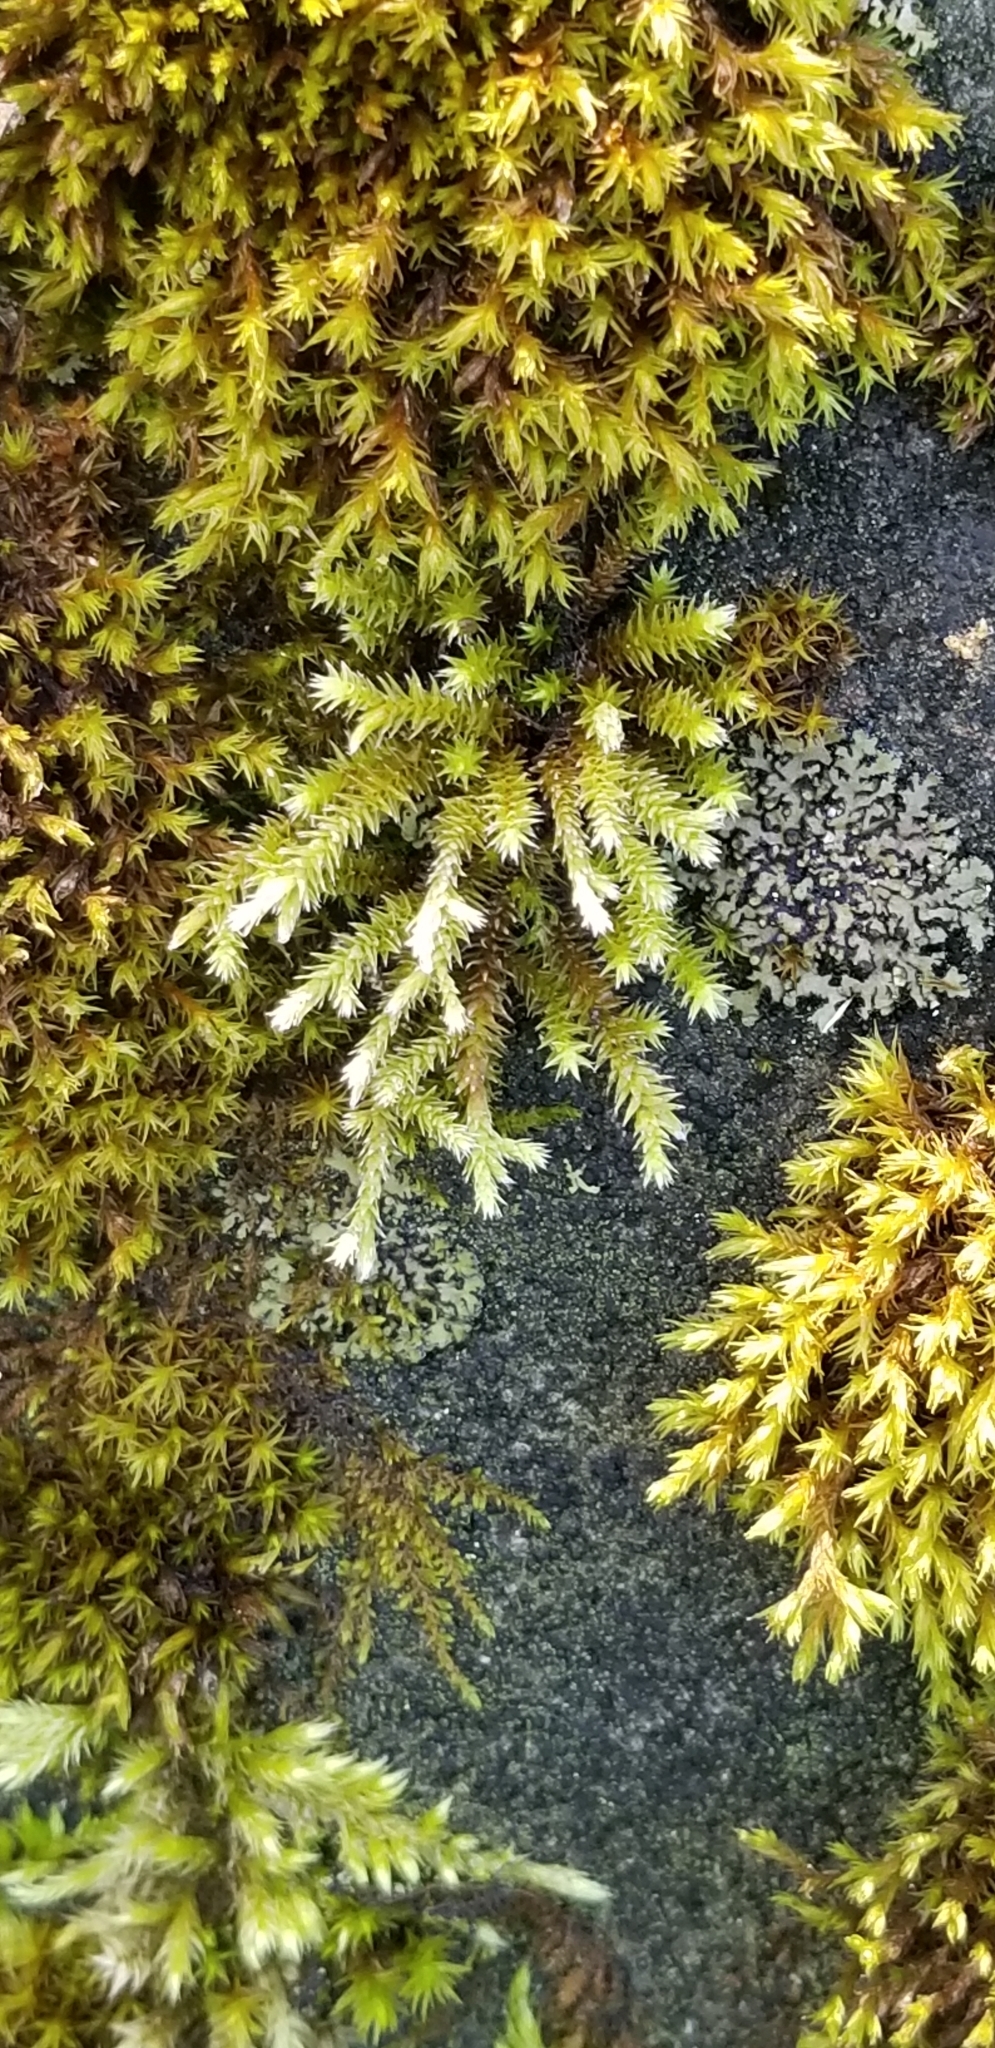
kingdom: Plantae
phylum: Bryophyta
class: Bryopsida
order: Hedwigiales
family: Hedwigiaceae
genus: Hedwigia
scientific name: Hedwigia ciliata
